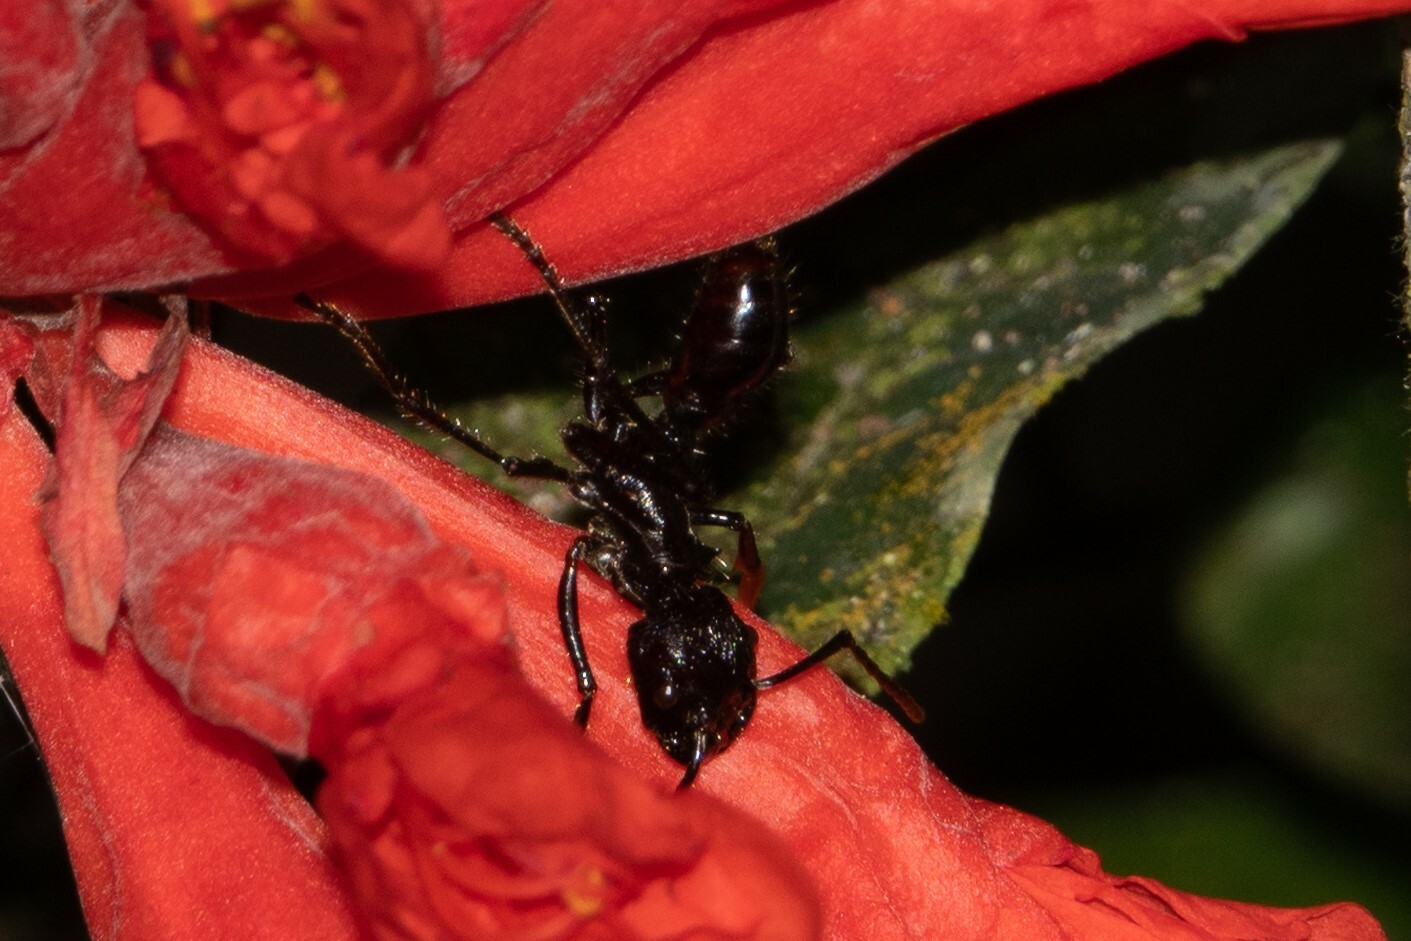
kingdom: Animalia
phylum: Arthropoda
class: Insecta
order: Hymenoptera
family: Formicidae
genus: Paraponera
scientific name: Paraponera clavata
